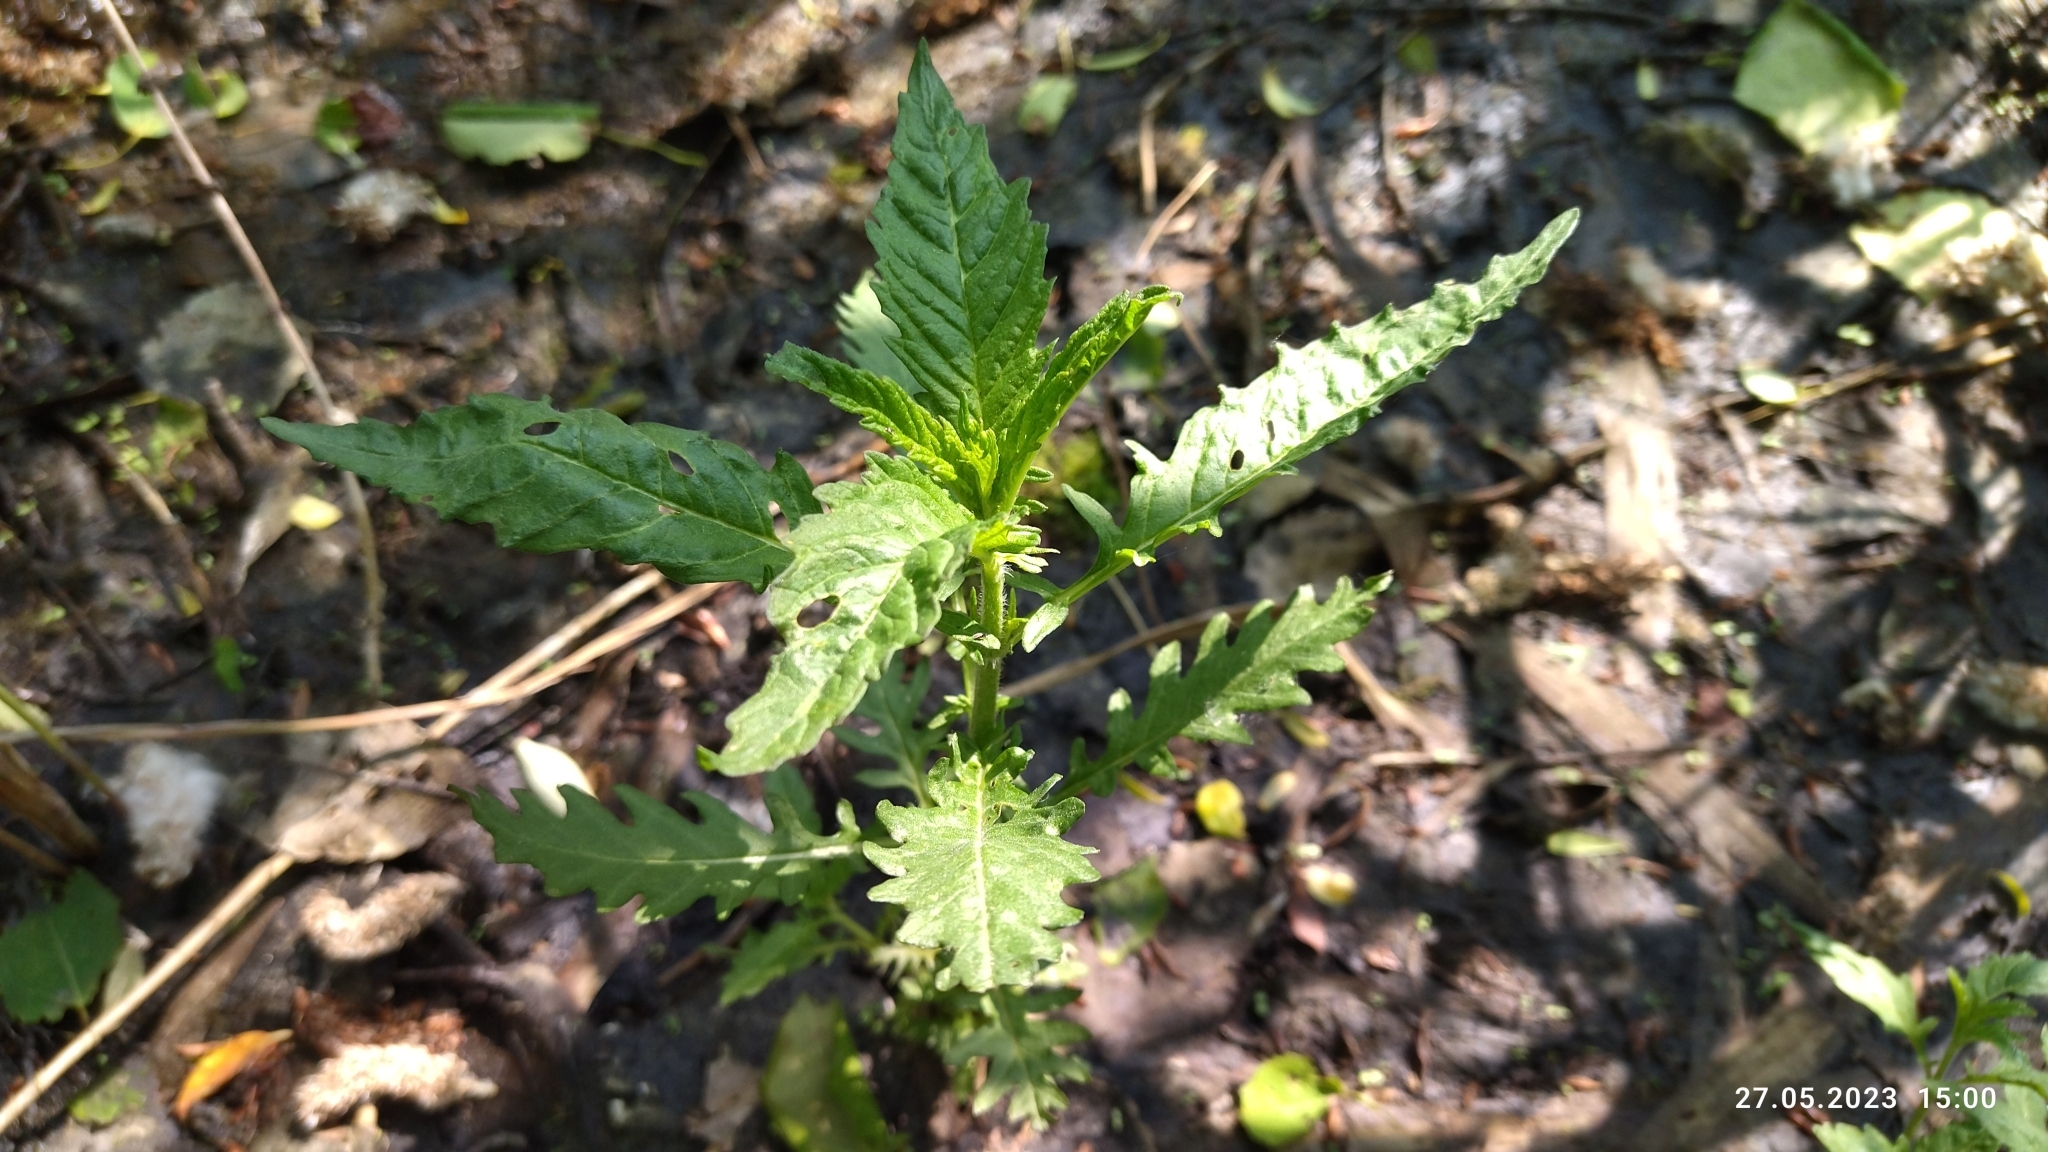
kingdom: Plantae
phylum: Tracheophyta
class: Magnoliopsida
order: Lamiales
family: Lamiaceae
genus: Lycopus
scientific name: Lycopus europaeus
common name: European bugleweed
